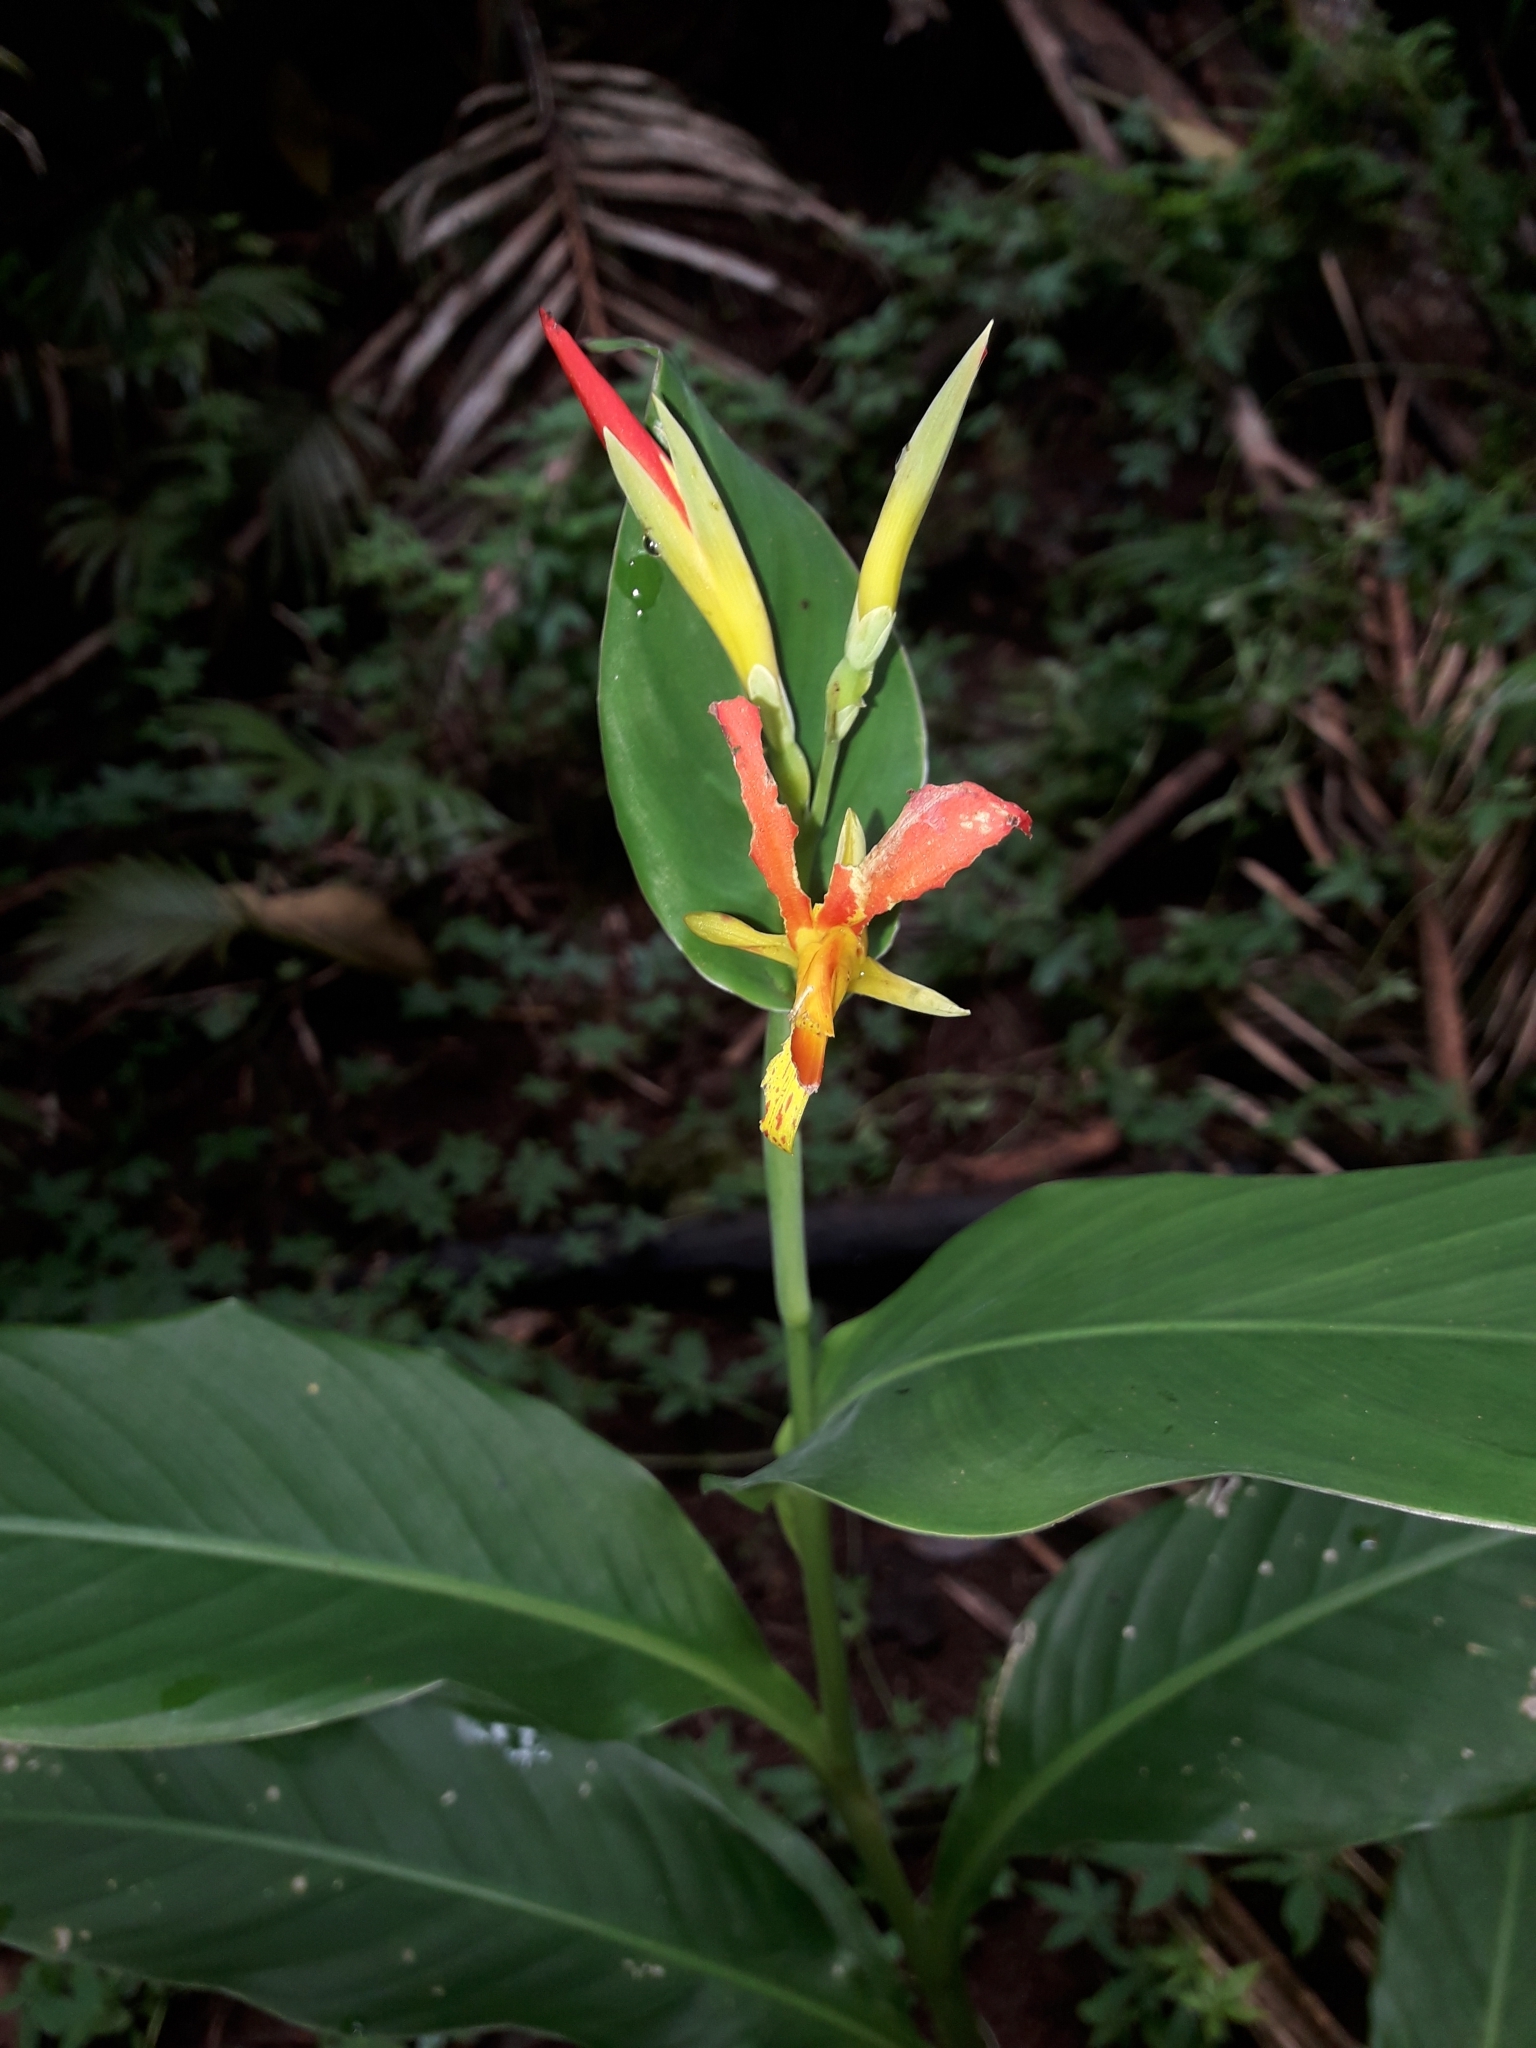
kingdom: Plantae
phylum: Tracheophyta
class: Liliopsida
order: Zingiberales
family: Cannaceae
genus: Canna
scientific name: Canna indica
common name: Indian shot
